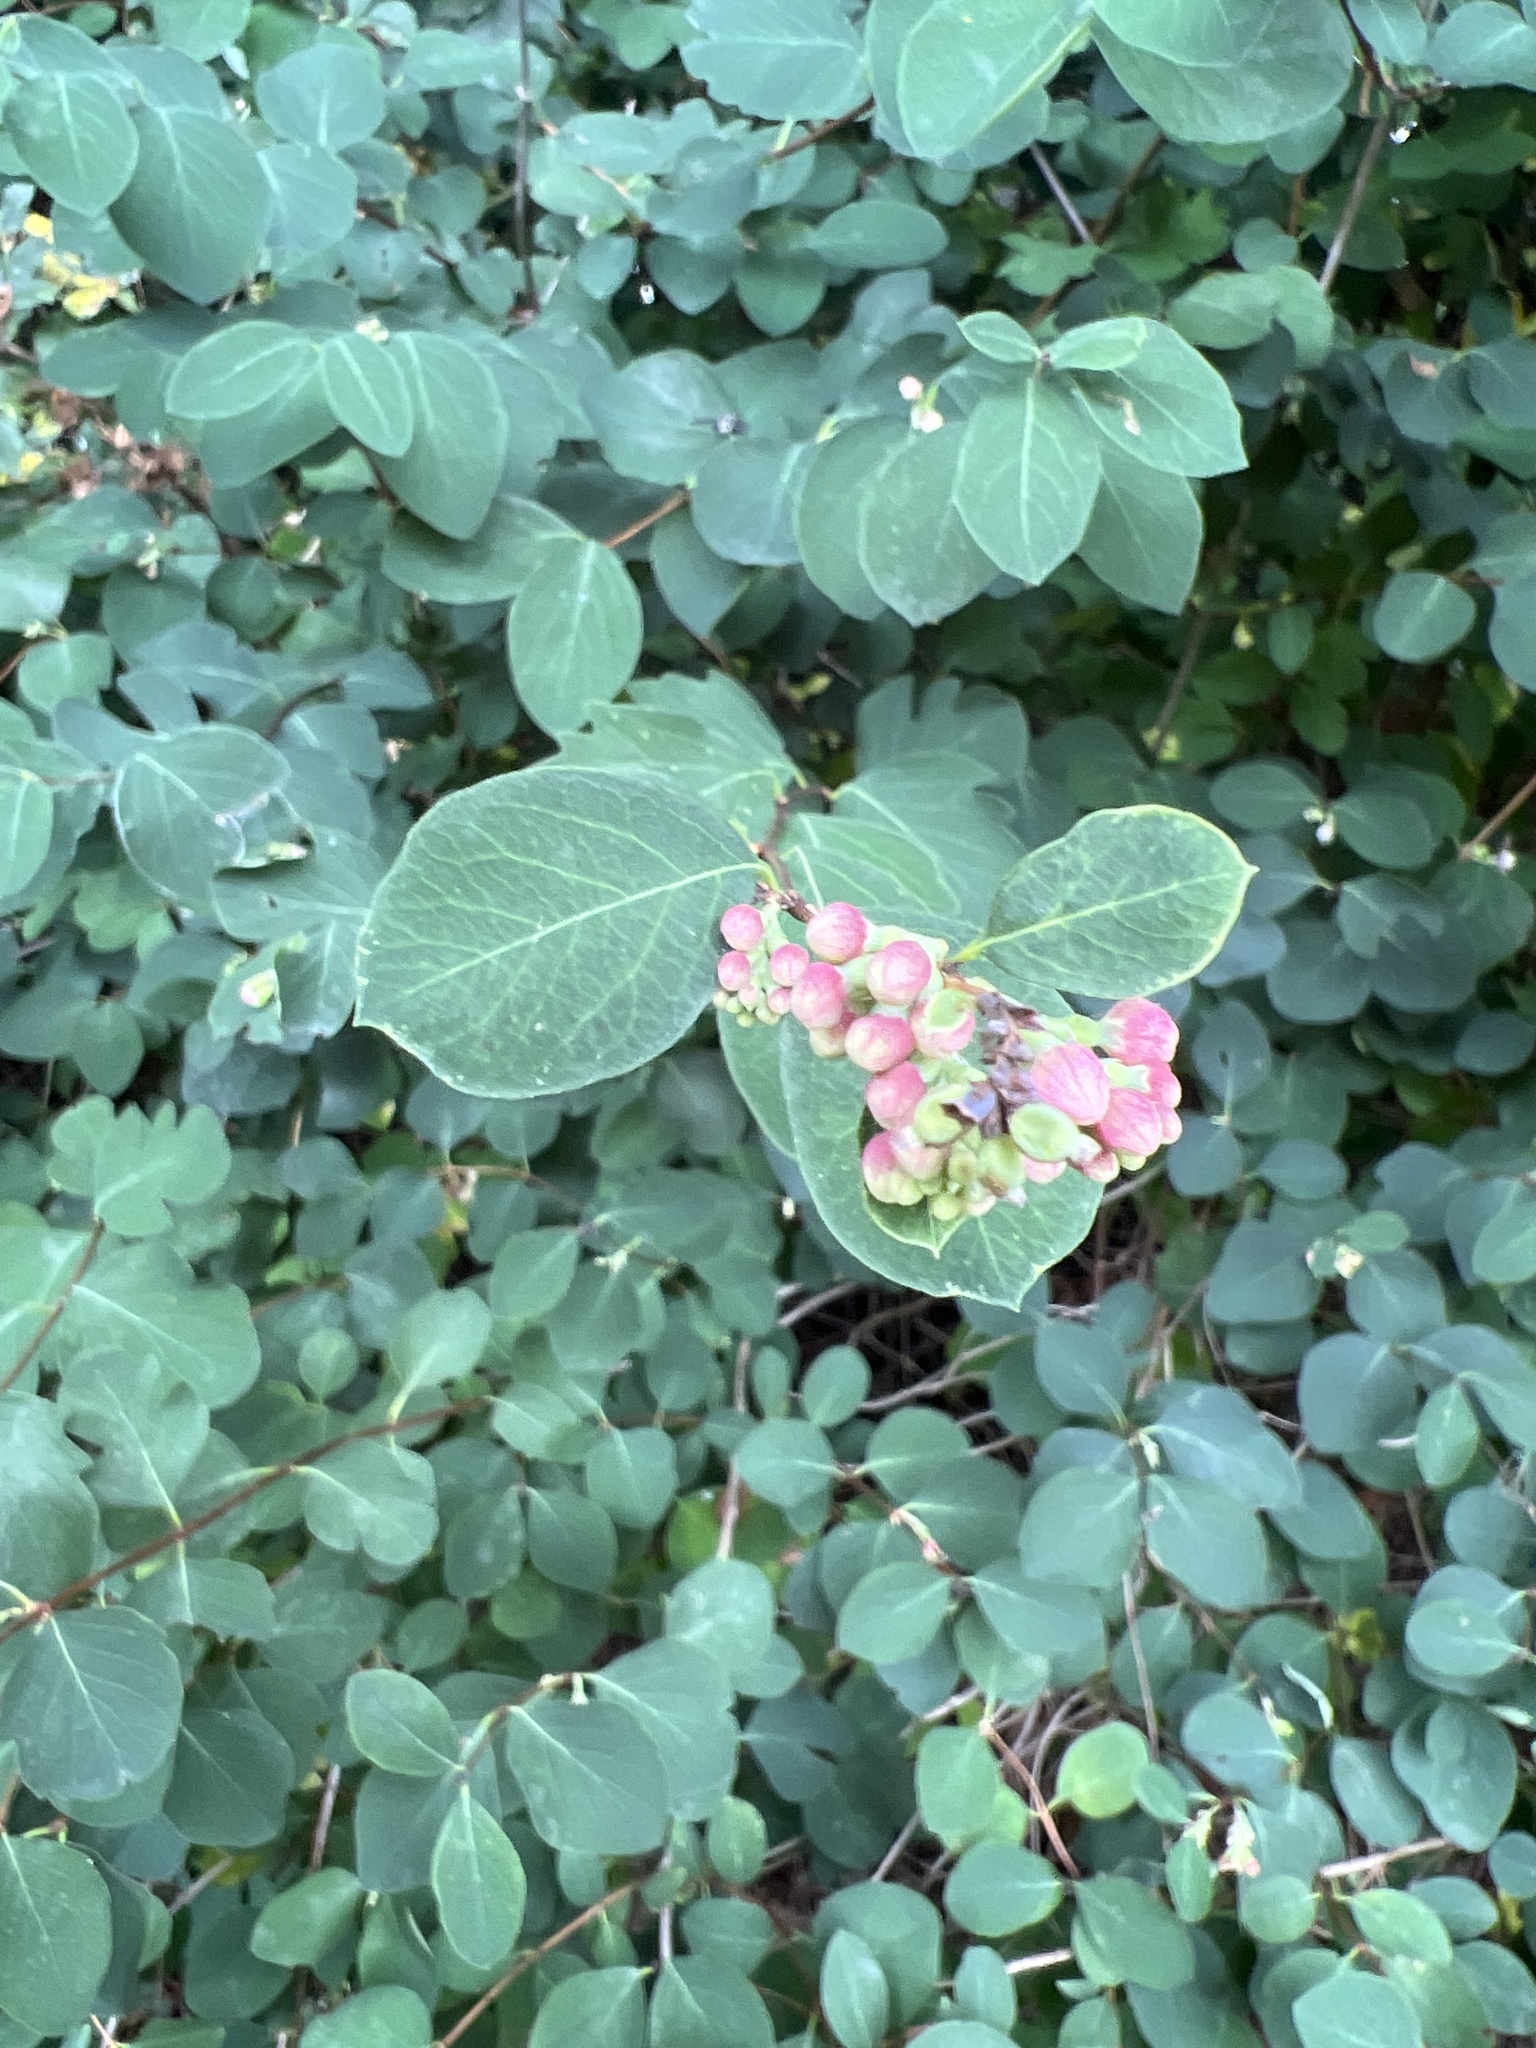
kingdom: Plantae
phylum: Tracheophyta
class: Magnoliopsida
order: Dipsacales
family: Caprifoliaceae
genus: Symphoricarpos
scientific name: Symphoricarpos albus
